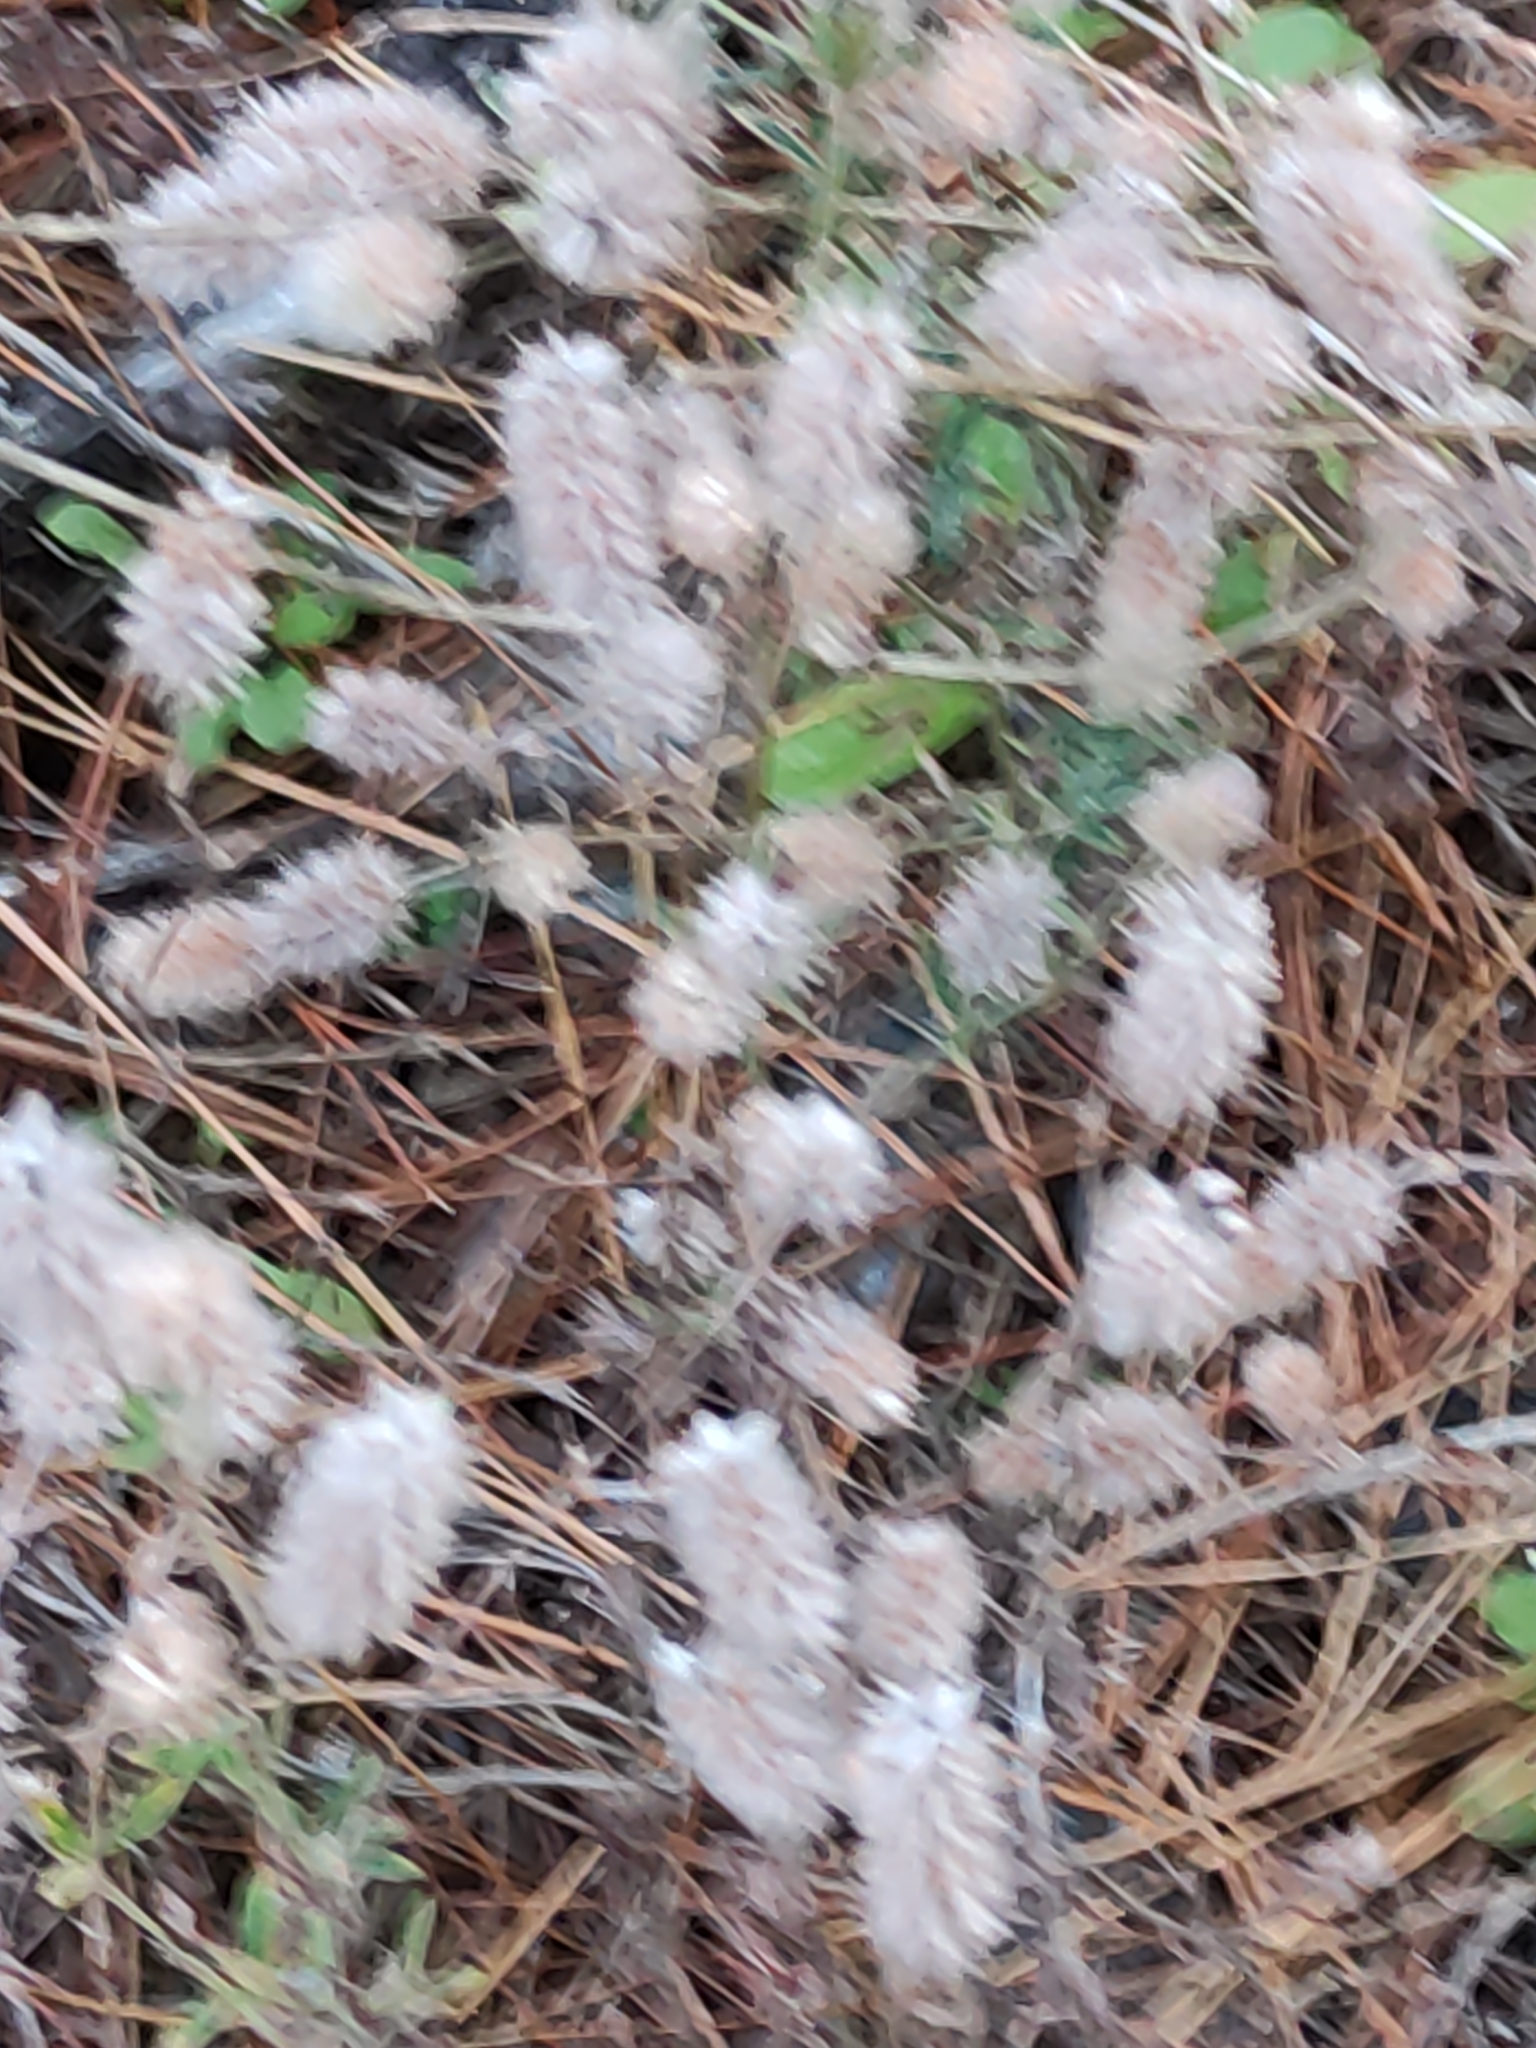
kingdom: Plantae
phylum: Tracheophyta
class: Magnoliopsida
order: Fabales
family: Fabaceae
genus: Trifolium
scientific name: Trifolium arvense
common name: Hare's-foot clover
